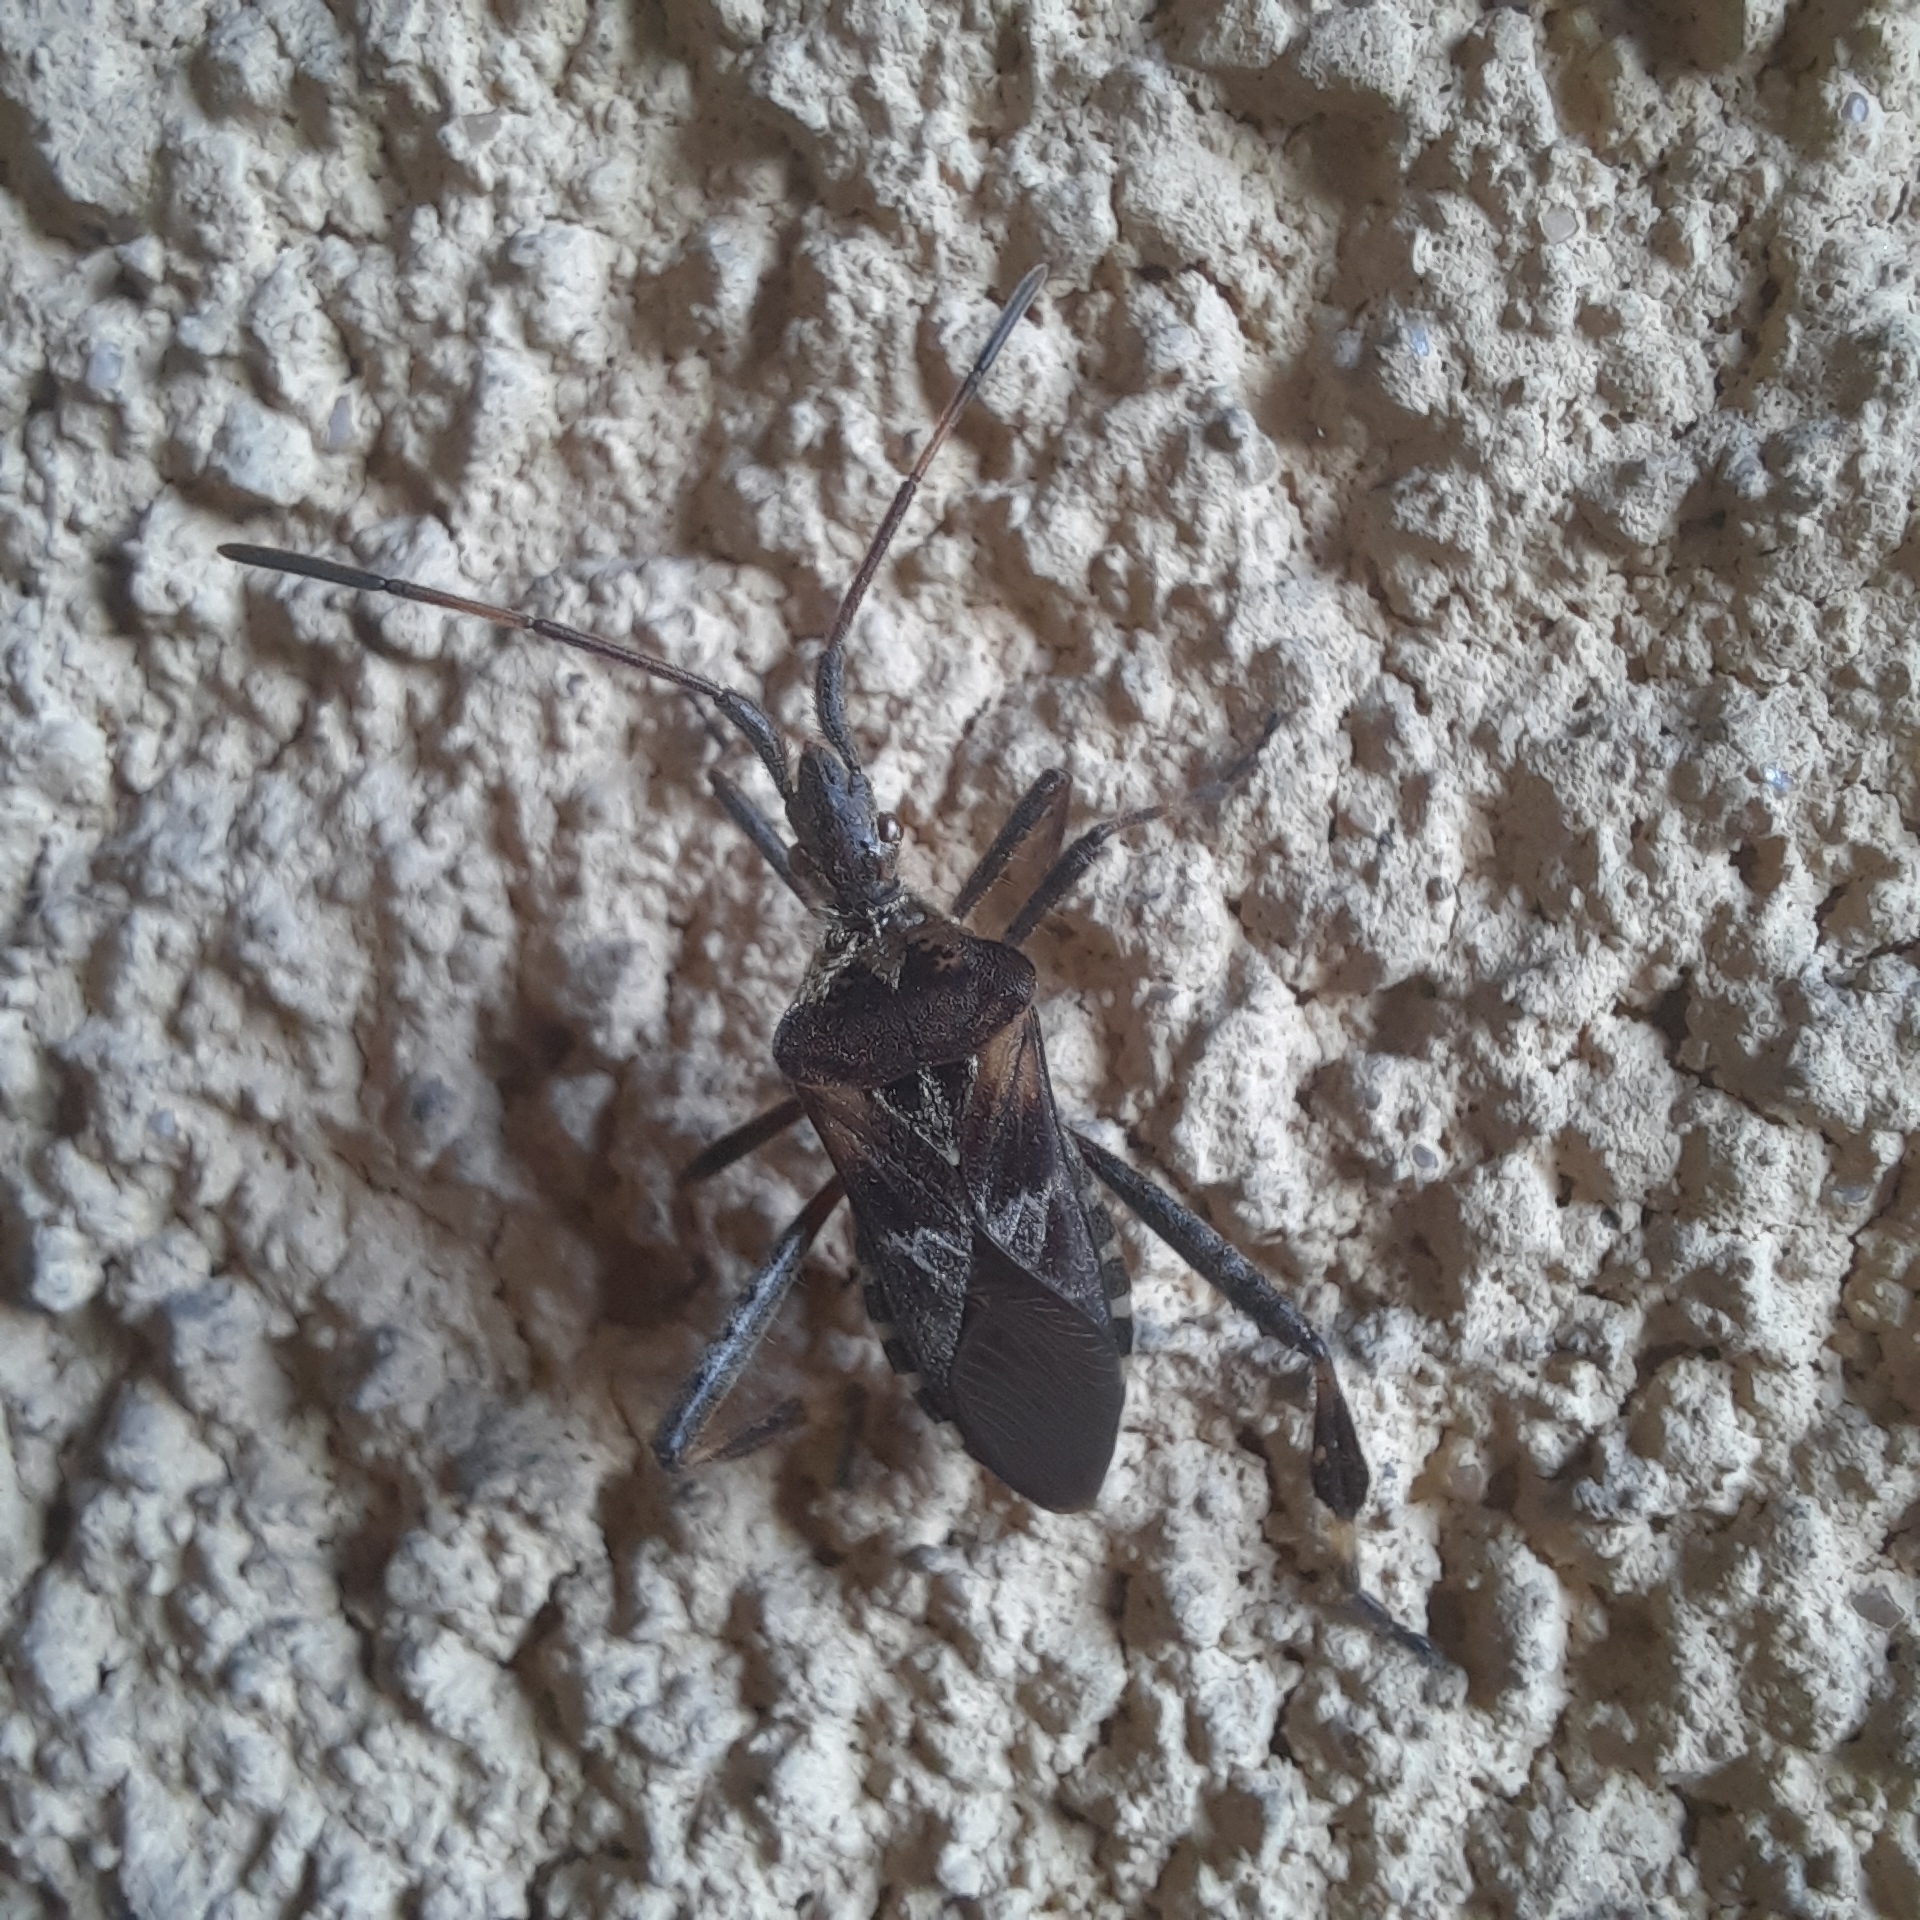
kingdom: Animalia
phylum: Arthropoda
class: Insecta
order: Hemiptera
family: Coreidae
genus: Leptoglossus
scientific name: Leptoglossus occidentalis
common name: Western conifer-seed bug
